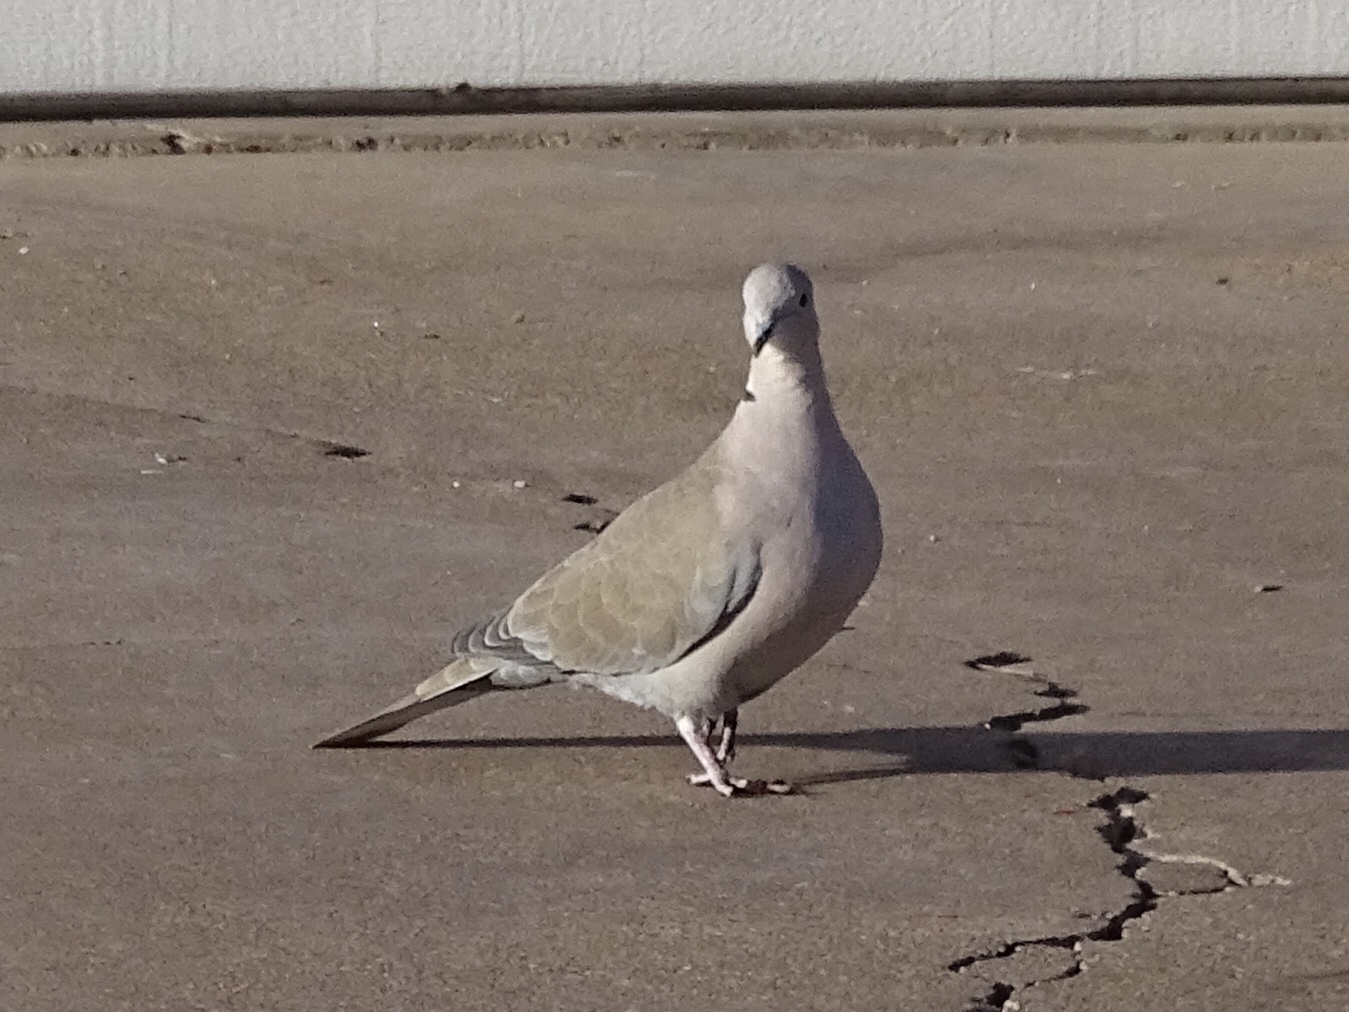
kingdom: Animalia
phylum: Chordata
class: Aves
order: Columbiformes
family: Columbidae
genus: Streptopelia
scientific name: Streptopelia decaocto
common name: Eurasian collared dove
